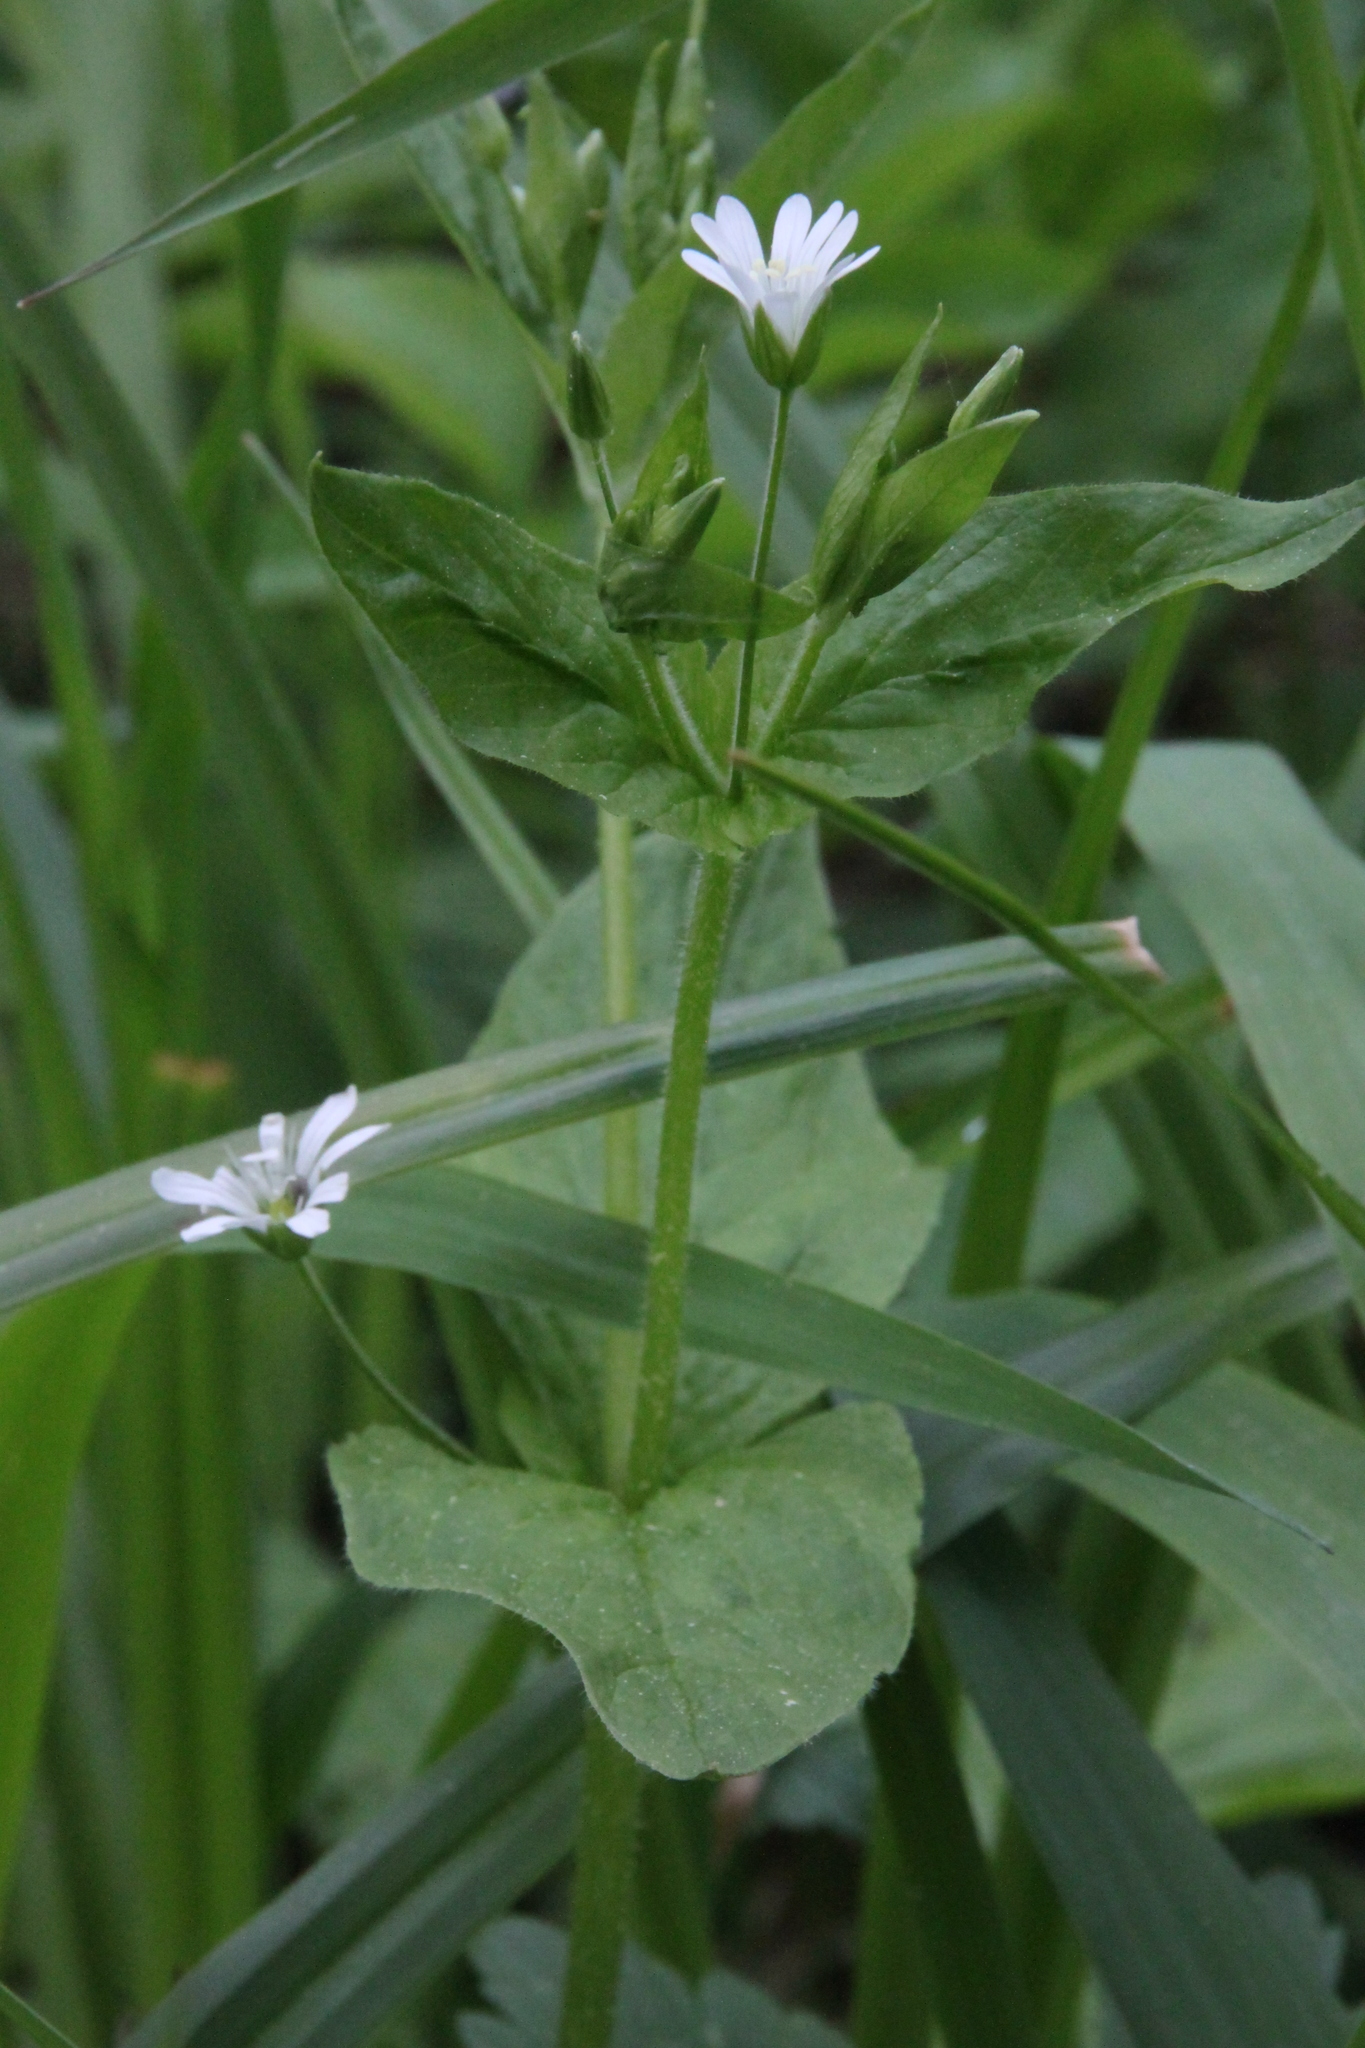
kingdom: Plantae
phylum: Tracheophyta
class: Magnoliopsida
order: Caryophyllales
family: Caryophyllaceae
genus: Stellaria
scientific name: Stellaria nemorum
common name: Wood stitchwort
